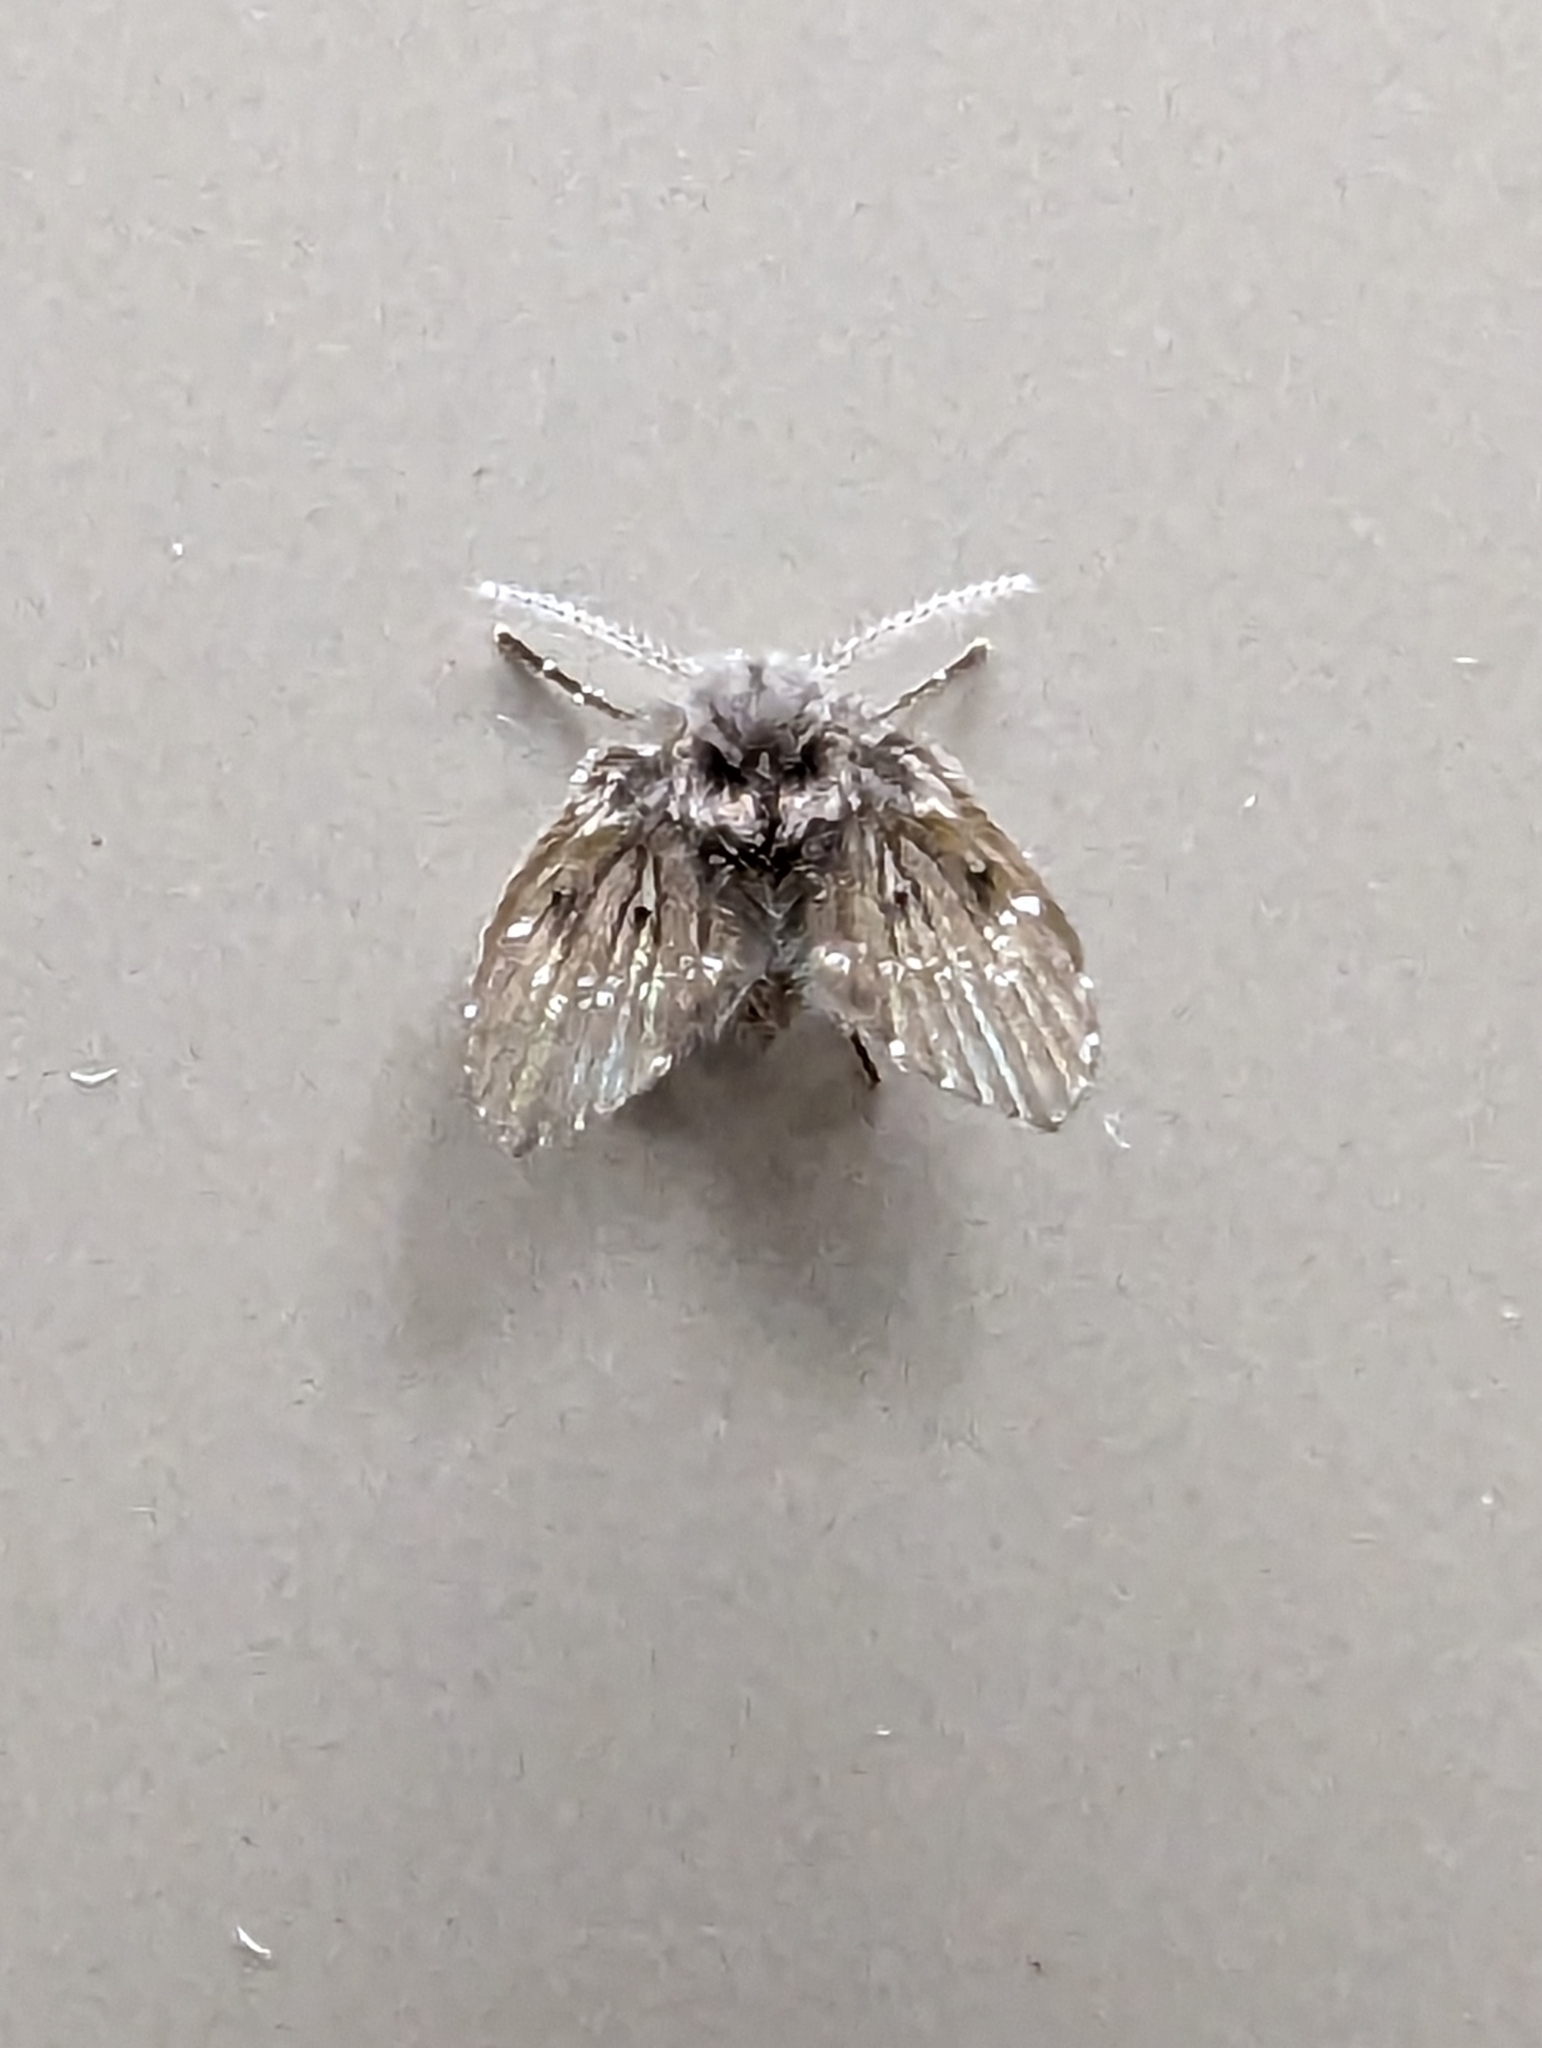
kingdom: Animalia
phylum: Arthropoda
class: Insecta
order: Diptera
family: Psychodidae
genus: Clogmia
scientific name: Clogmia albipunctatus
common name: White-spotted moth fly
